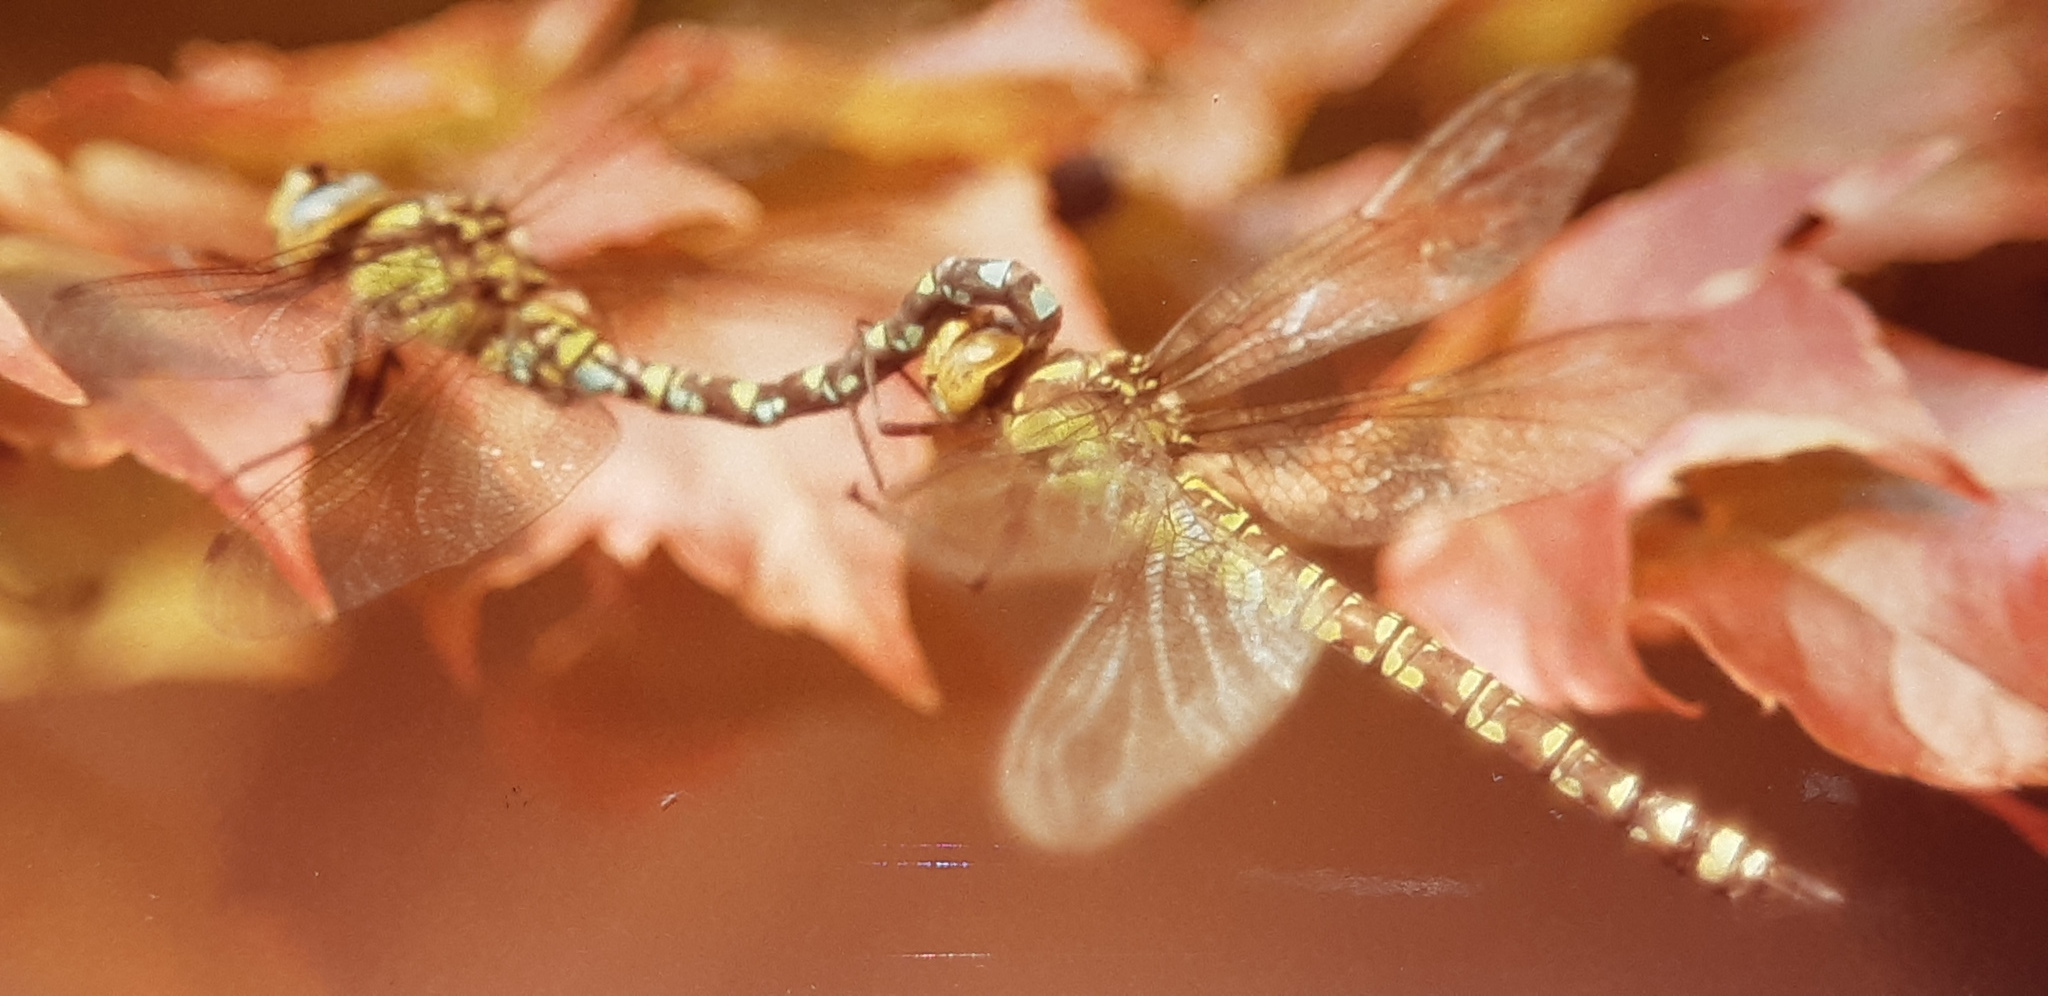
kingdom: Animalia
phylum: Arthropoda
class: Insecta
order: Odonata
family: Aeshnidae
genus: Aeshna
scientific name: Aeshna cyanea
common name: Southern hawker
